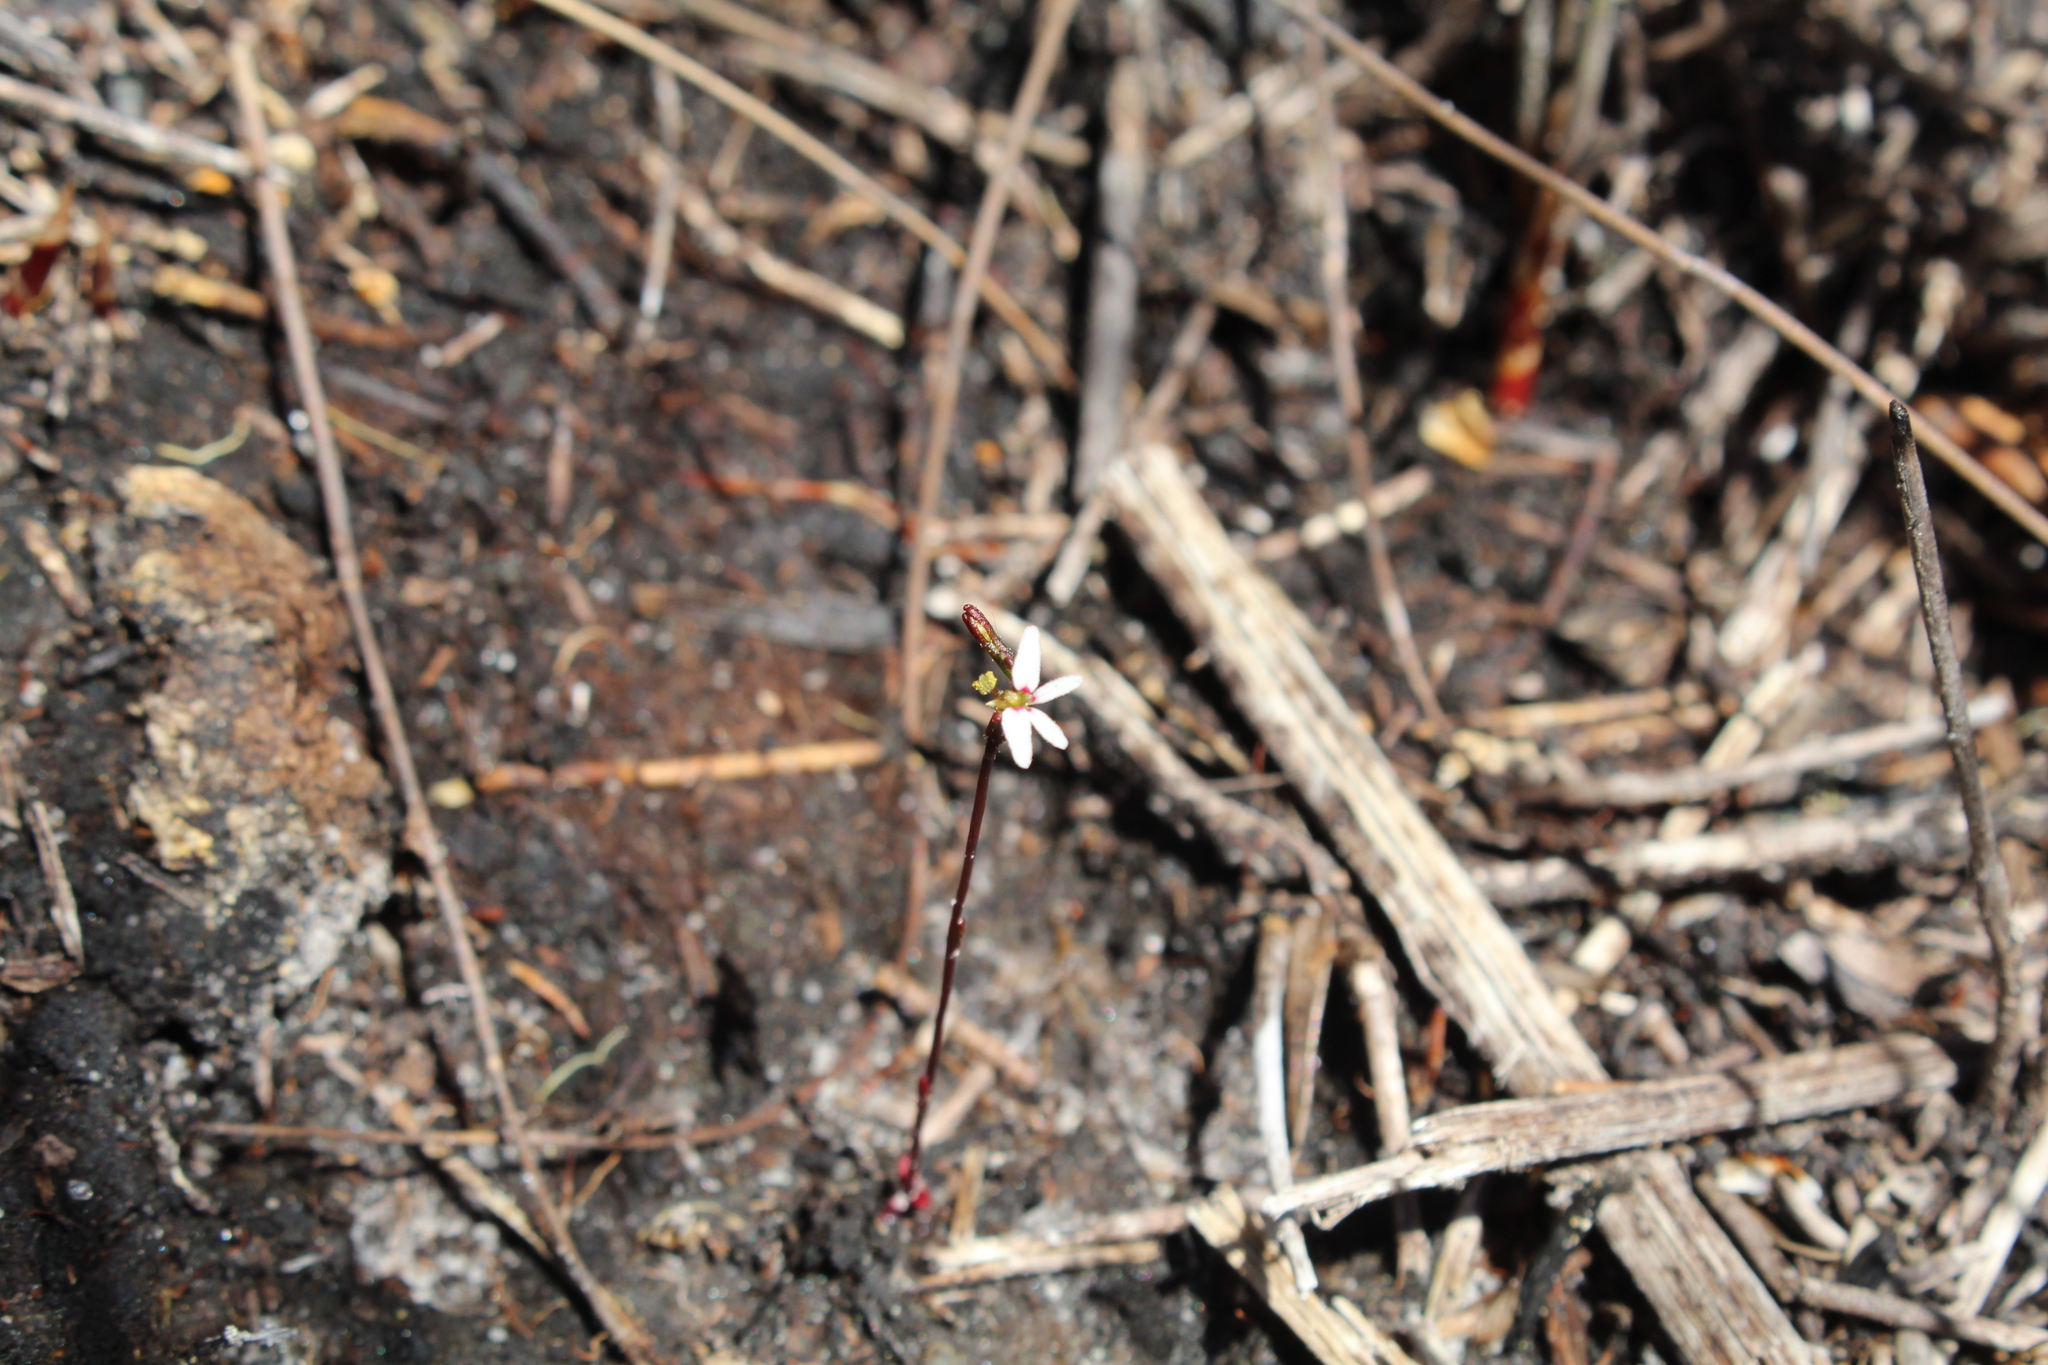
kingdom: Plantae
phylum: Tracheophyta
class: Magnoliopsida
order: Asterales
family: Stylidiaceae
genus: Stylidium
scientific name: Stylidium pygmaeum
